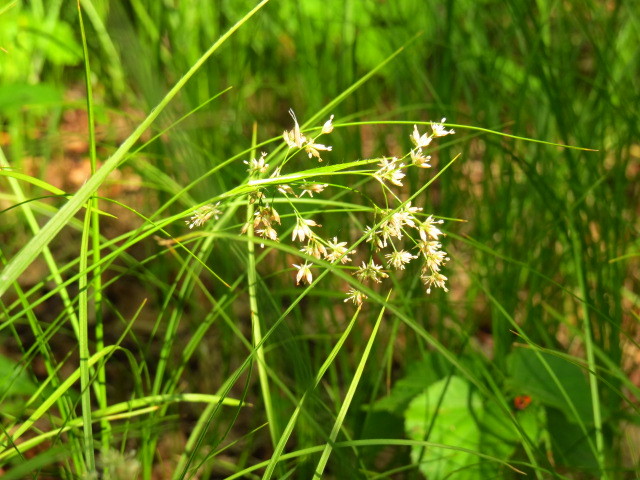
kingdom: Plantae
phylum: Tracheophyta
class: Liliopsida
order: Poales
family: Juncaceae
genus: Luzula
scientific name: Luzula luzuloides
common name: White wood-rush
